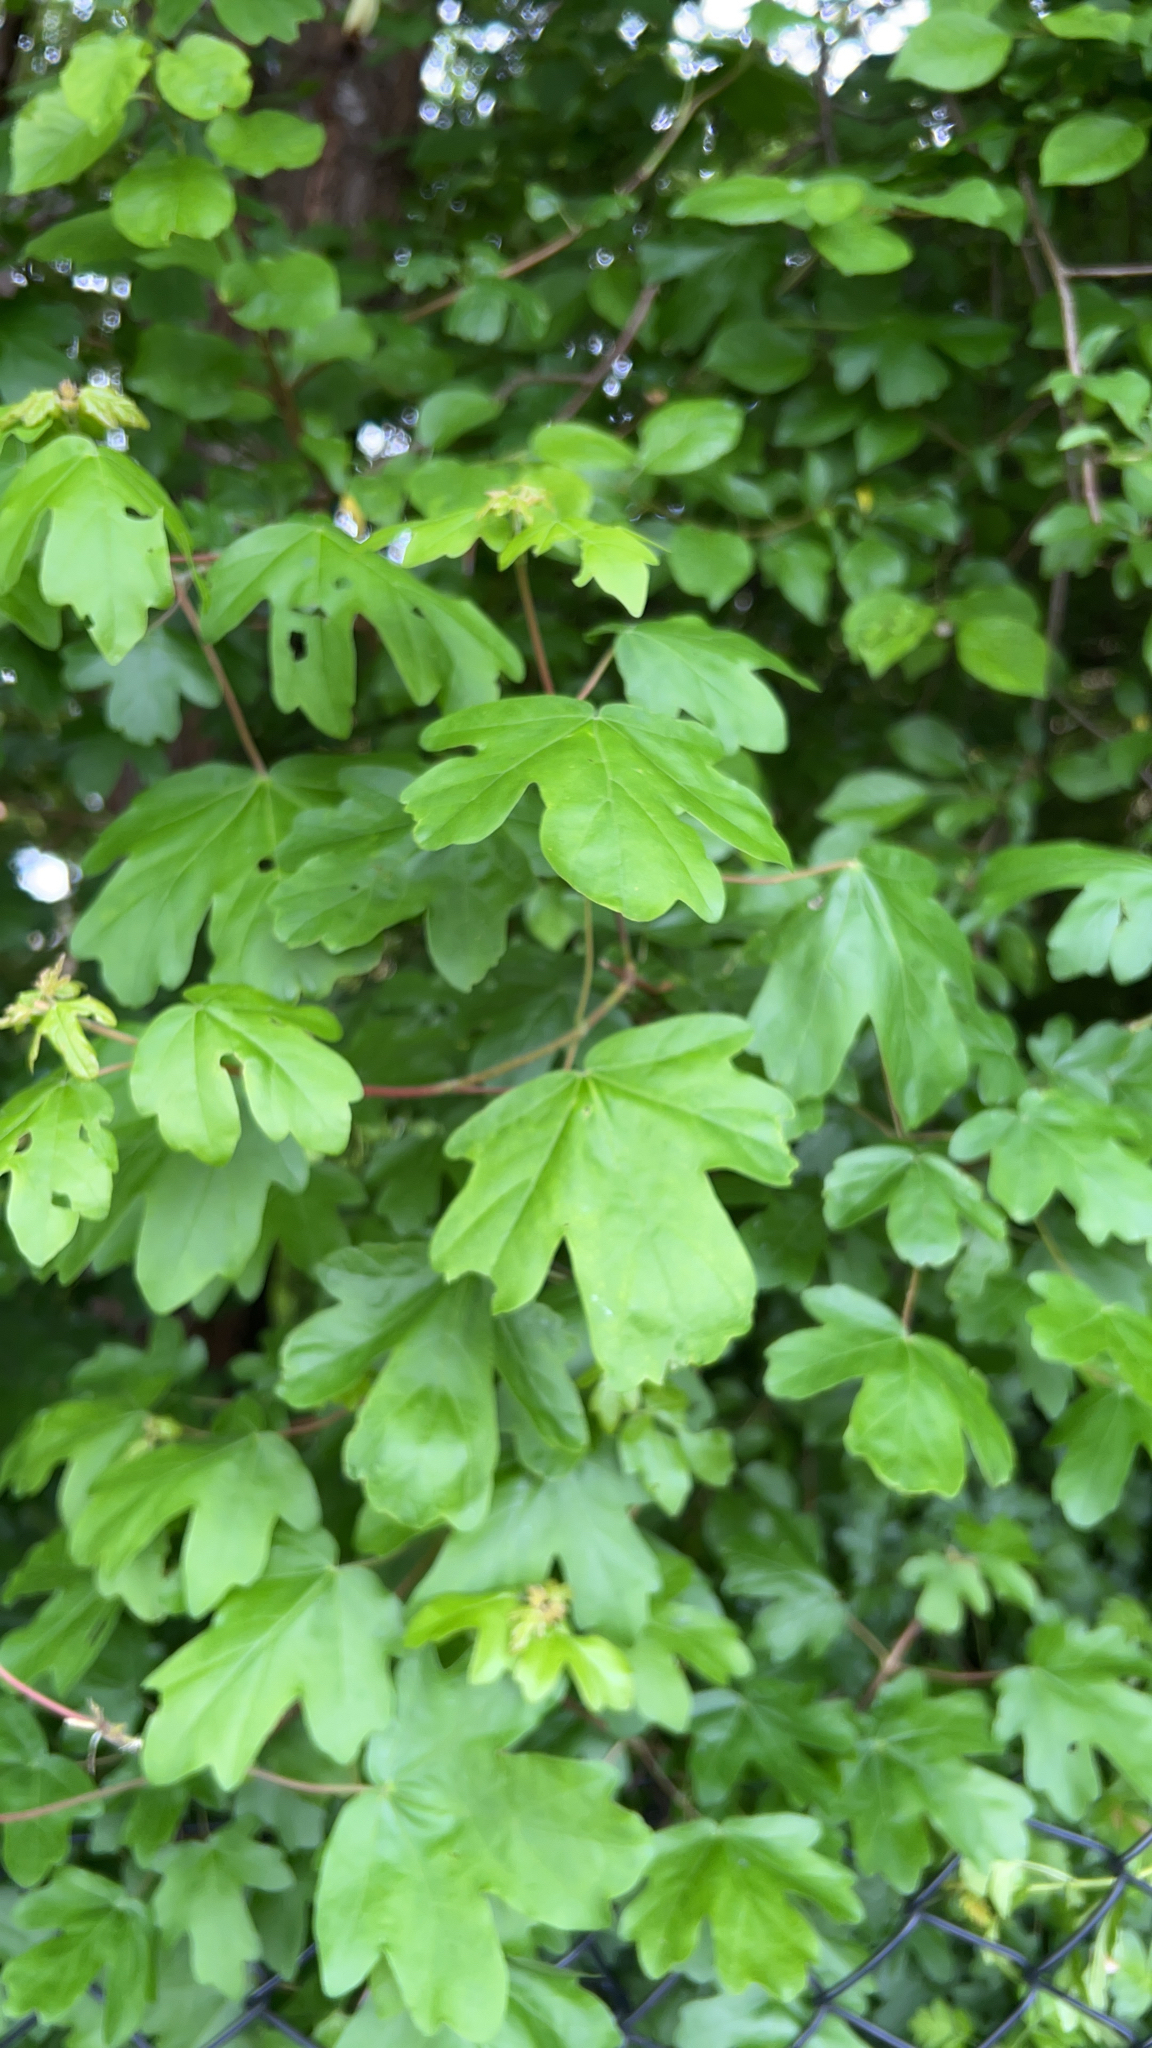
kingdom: Plantae
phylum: Tracheophyta
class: Magnoliopsida
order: Sapindales
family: Sapindaceae
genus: Acer
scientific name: Acer campestre
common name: Field maple
